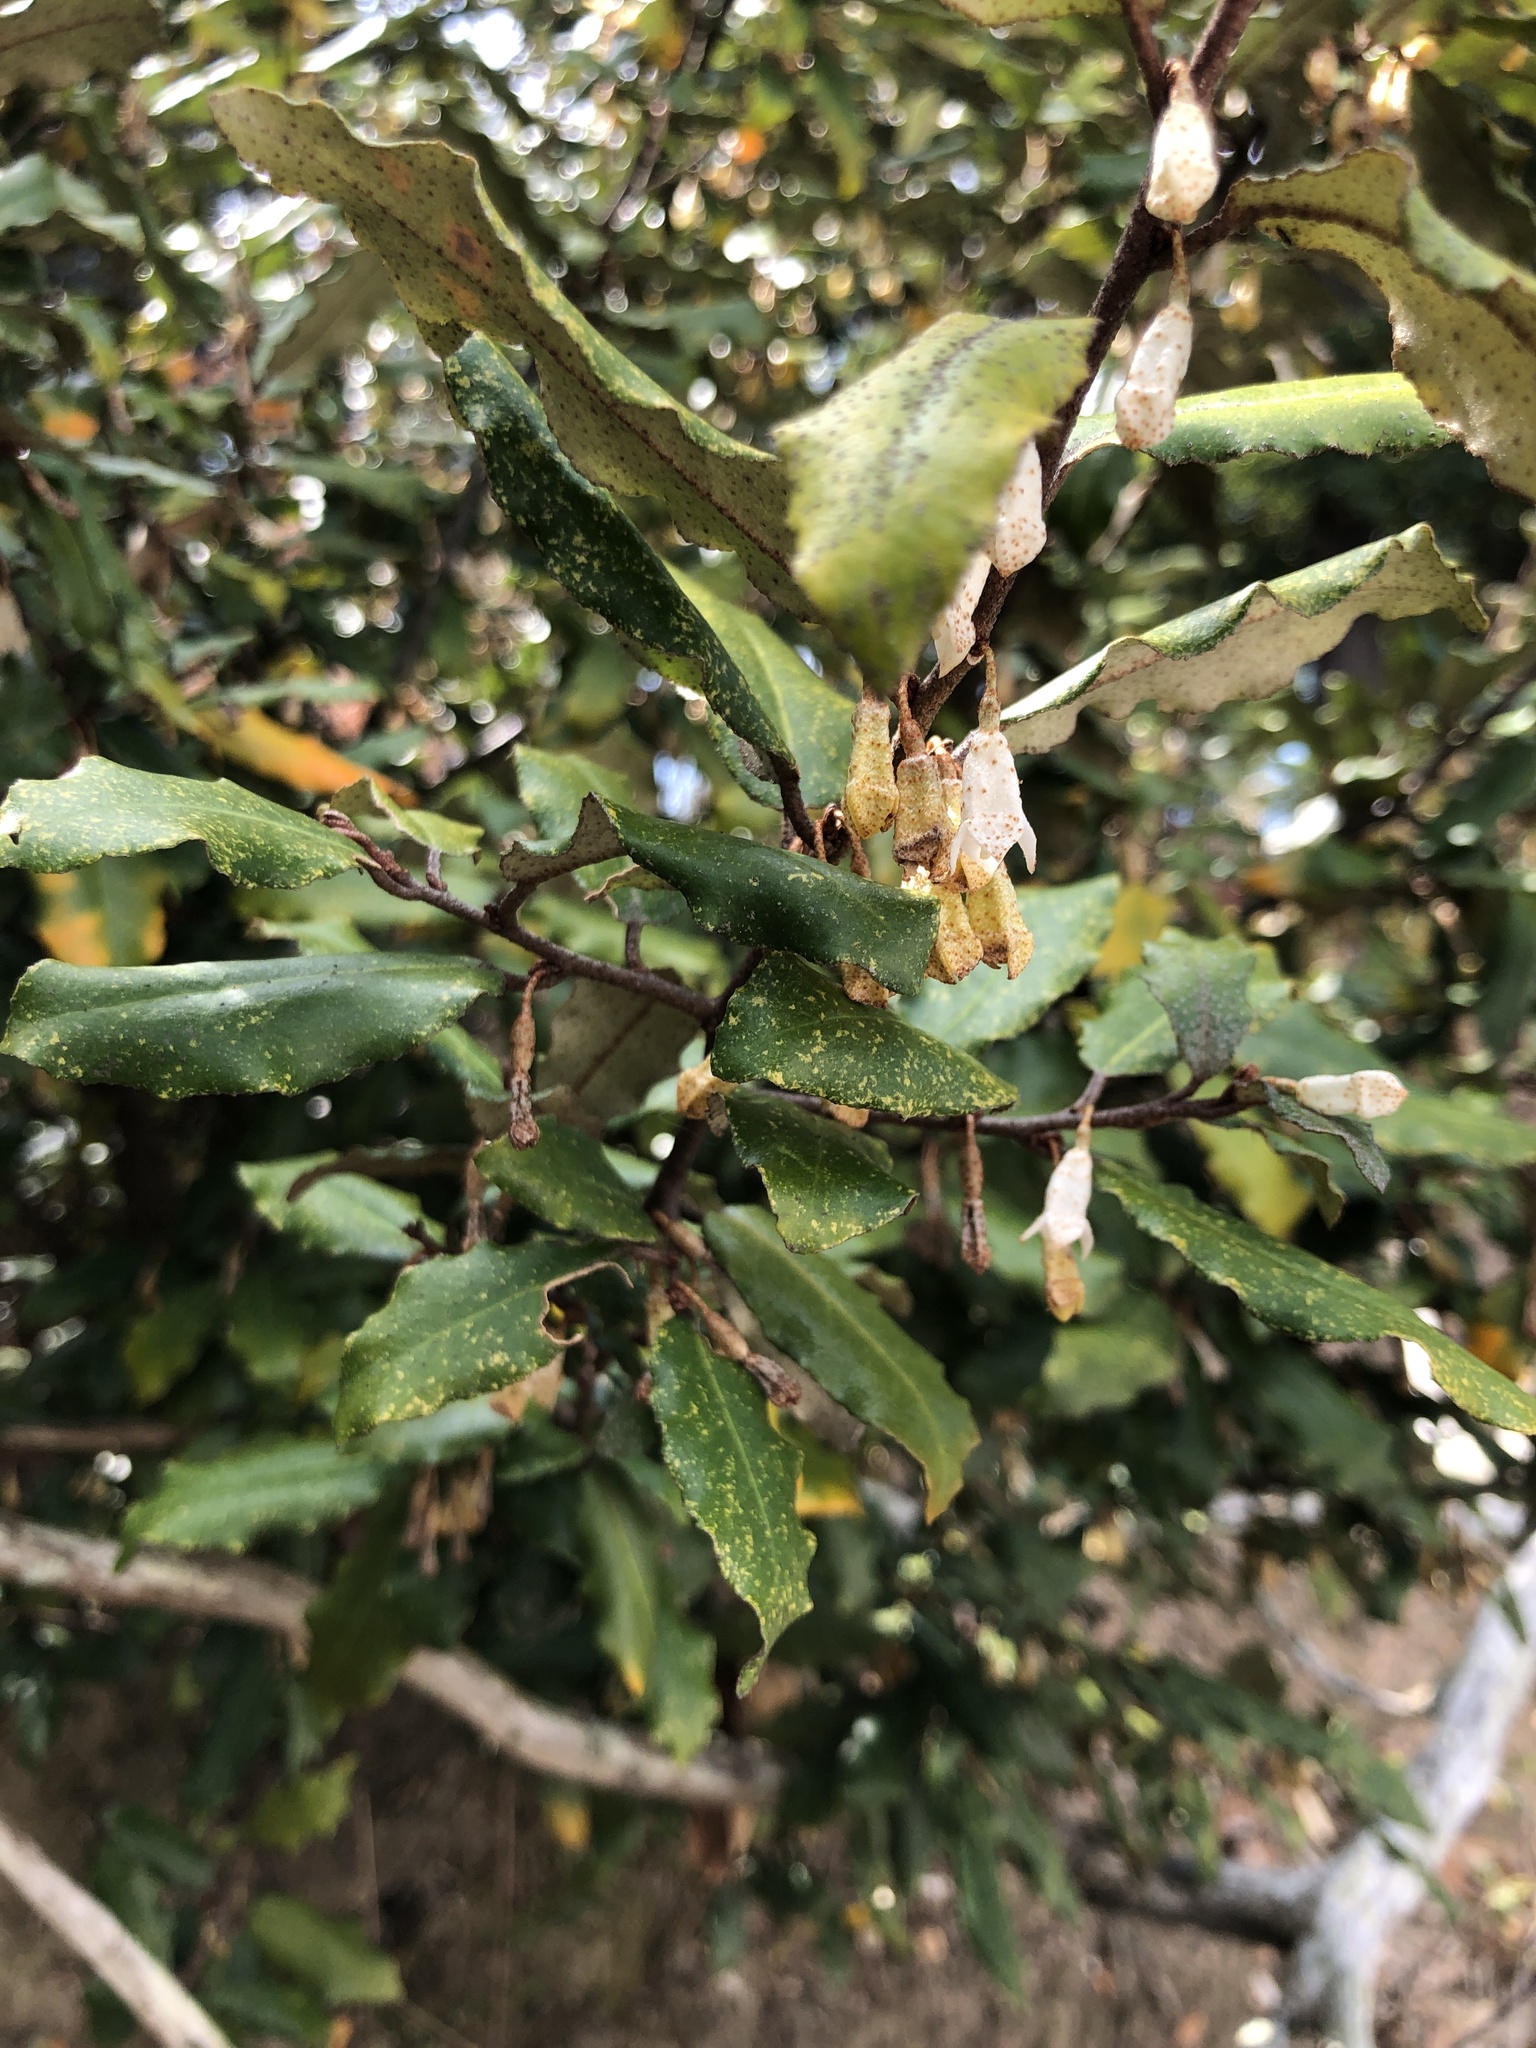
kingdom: Plantae
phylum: Tracheophyta
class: Magnoliopsida
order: Rosales
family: Elaeagnaceae
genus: Elaeagnus
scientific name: Elaeagnus pungens
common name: Spiny oleaster
